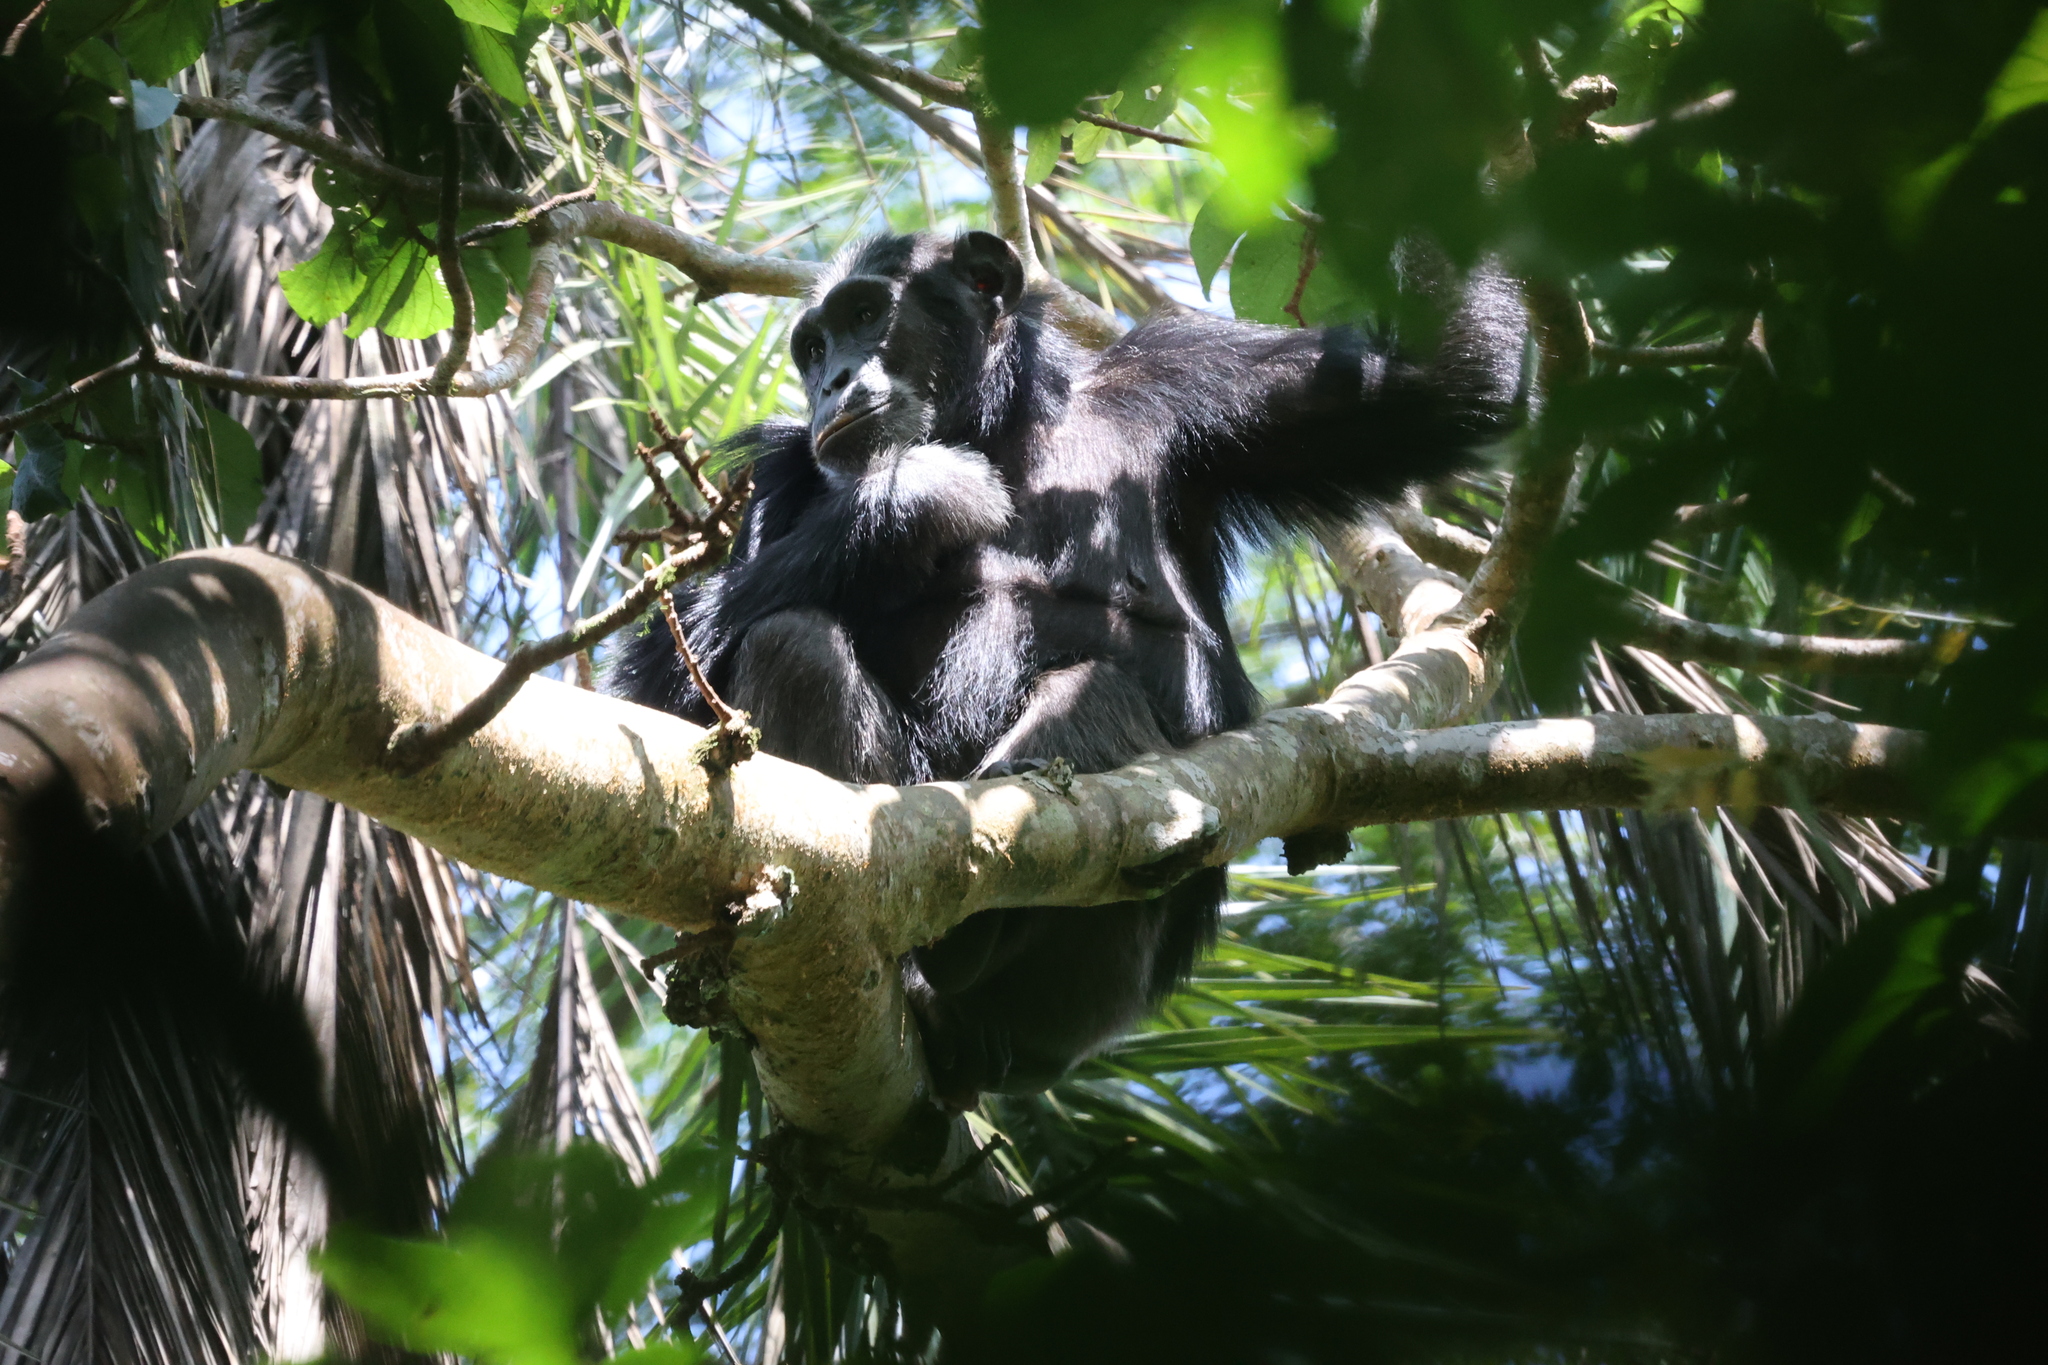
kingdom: Animalia
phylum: Chordata
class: Mammalia
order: Primates
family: Hominidae
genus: Pan
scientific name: Pan troglodytes
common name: Chimpanzee
